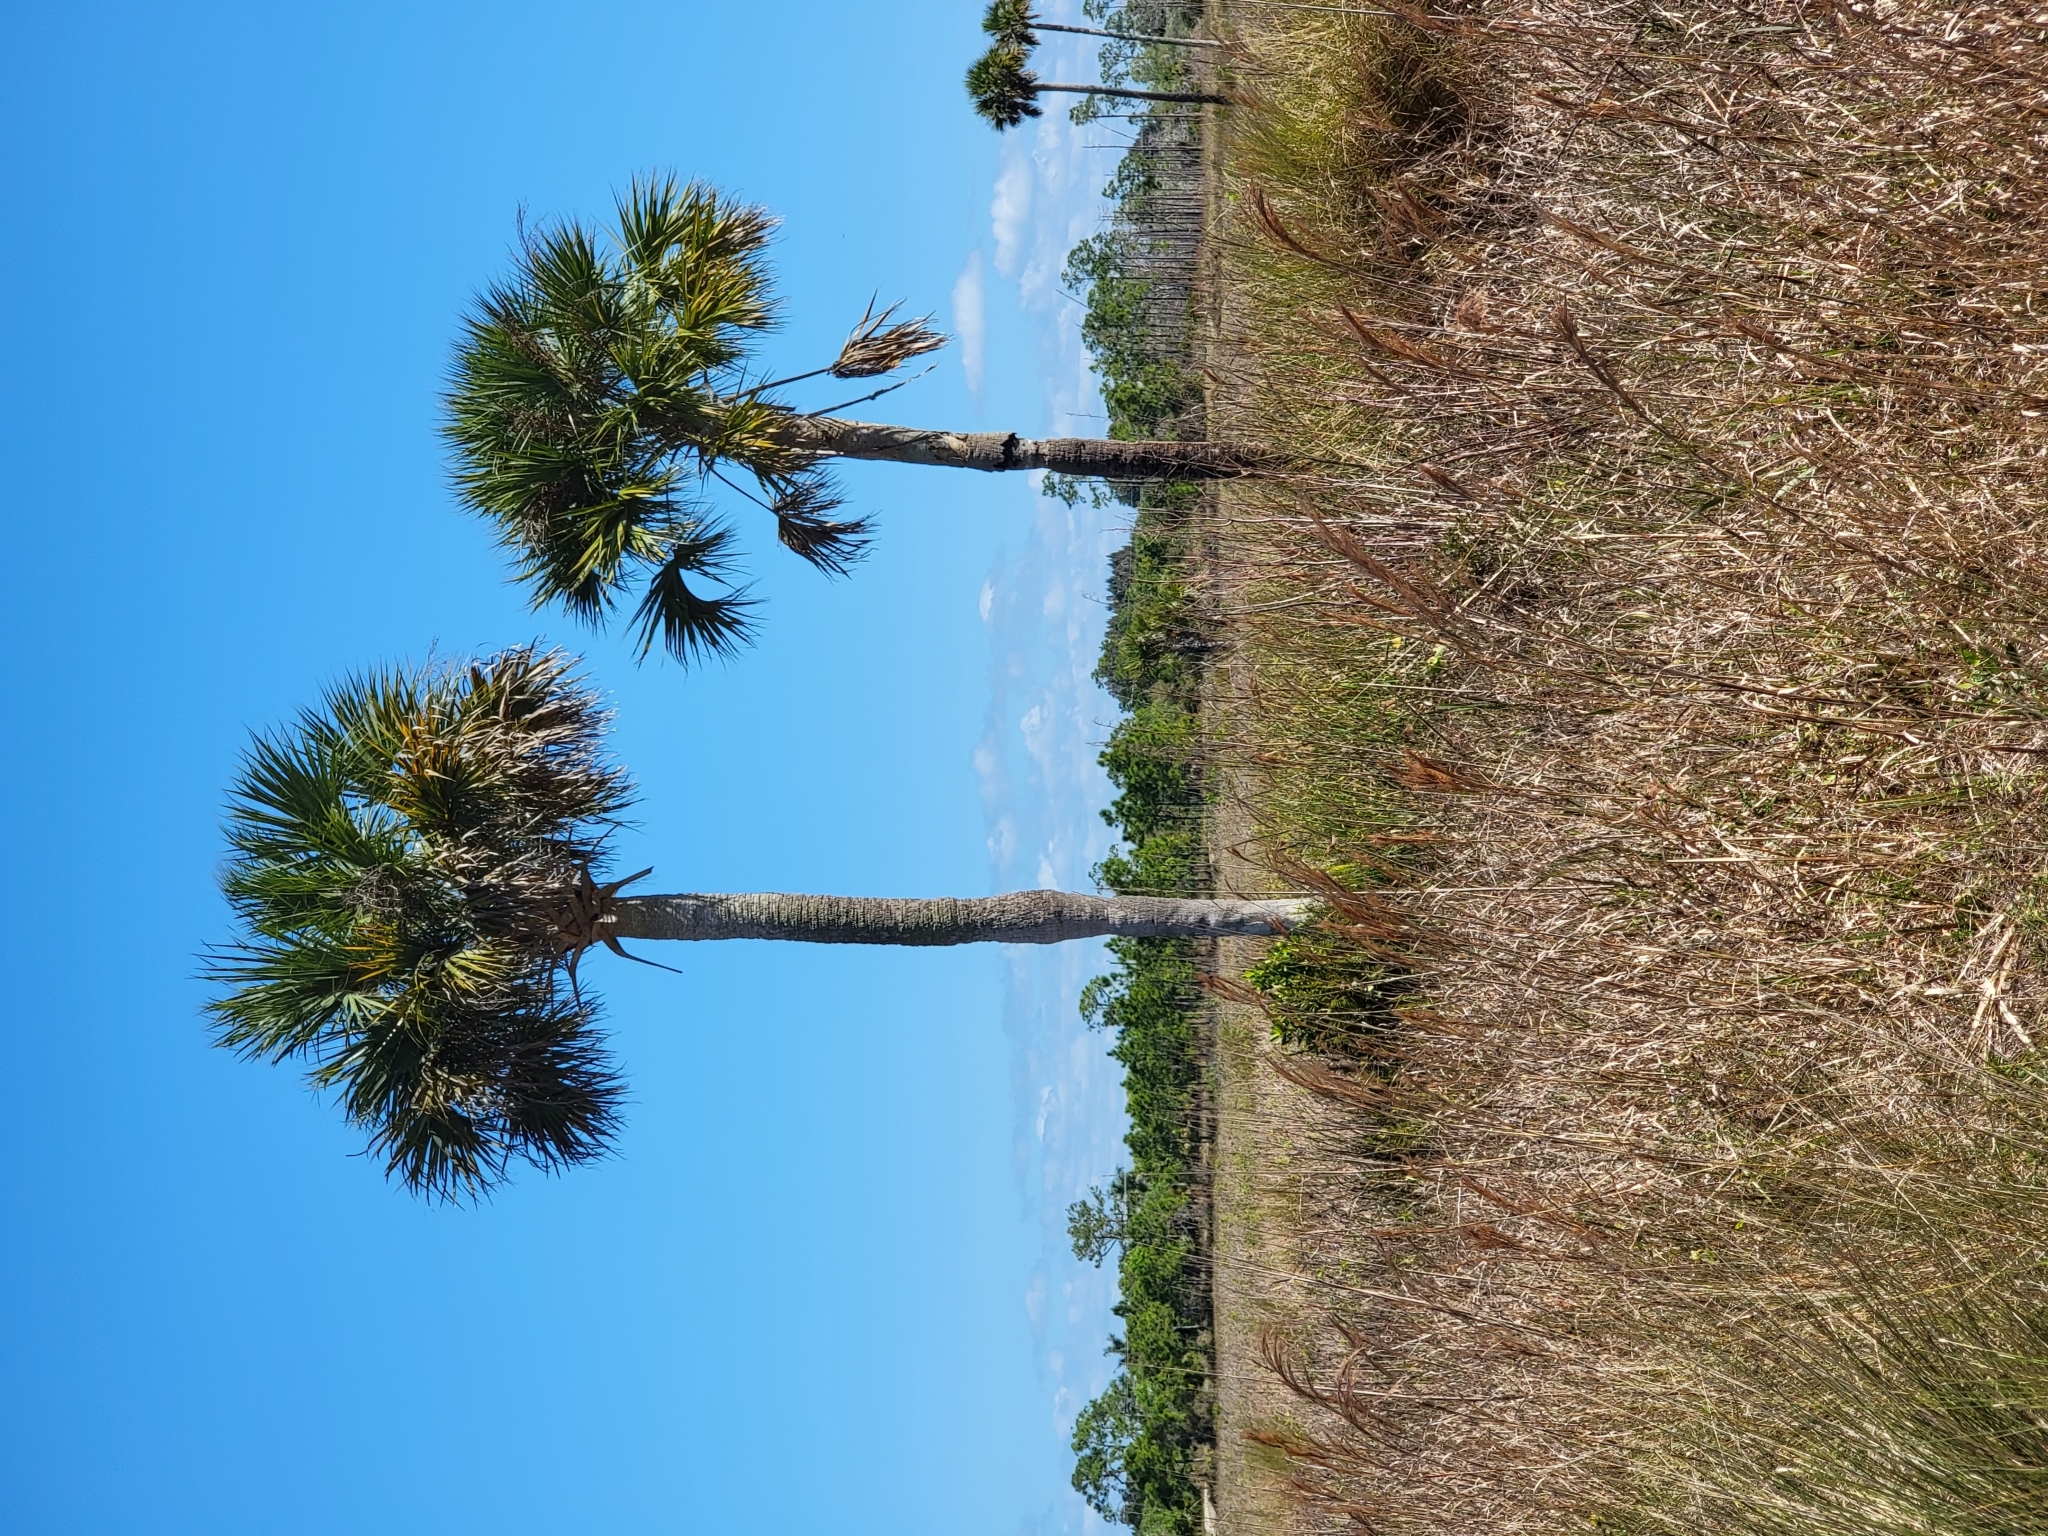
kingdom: Plantae
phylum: Tracheophyta
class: Liliopsida
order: Arecales
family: Arecaceae
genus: Sabal
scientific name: Sabal palmetto
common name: Blue palmetto
